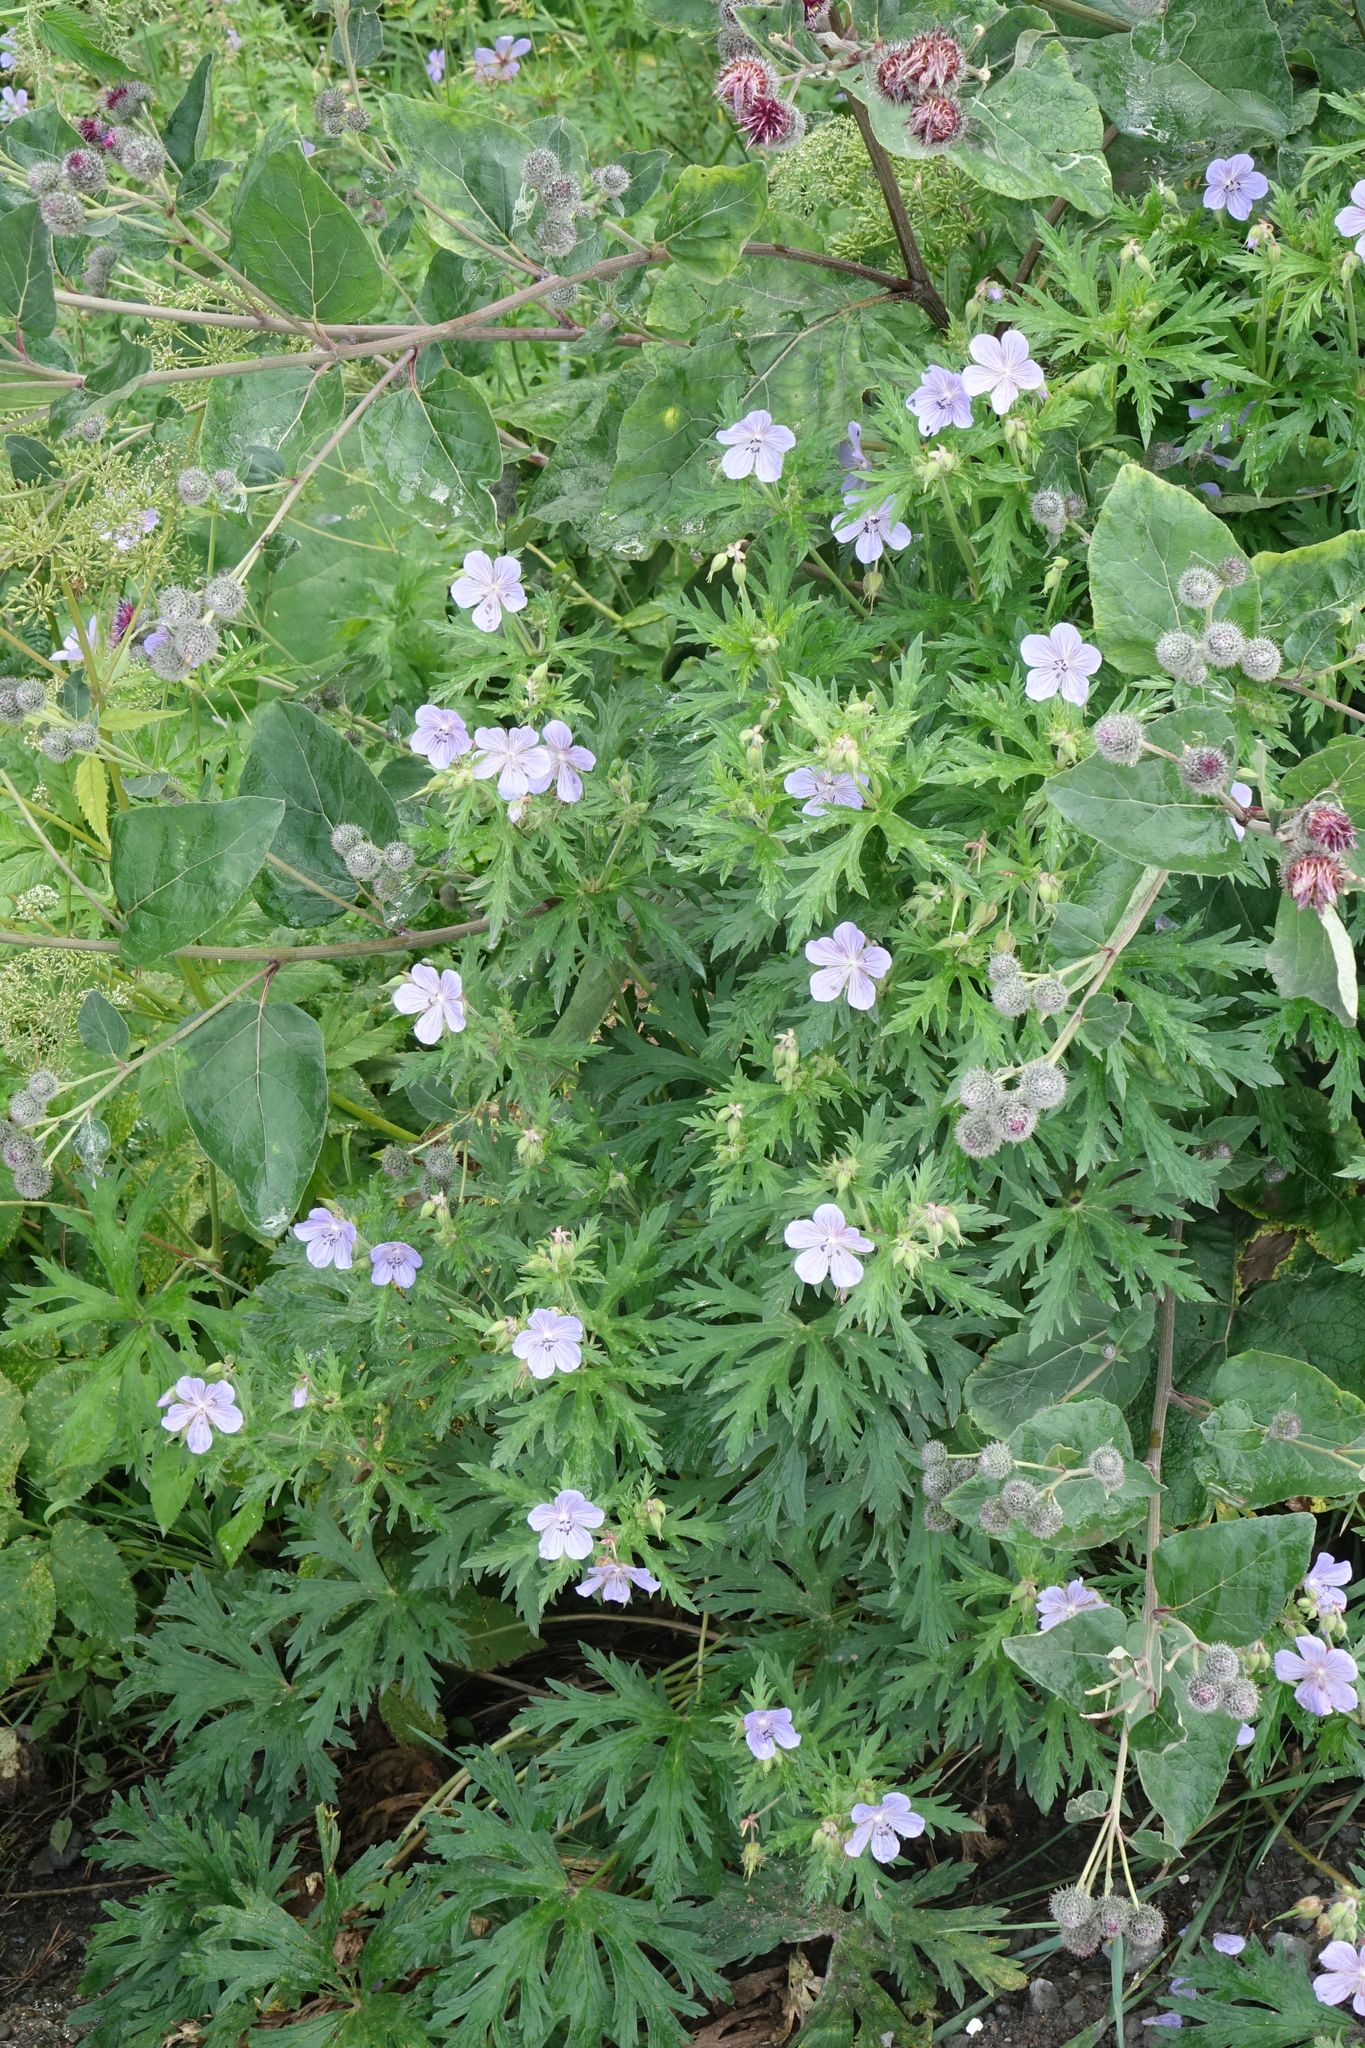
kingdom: Plantae
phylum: Tracheophyta
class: Magnoliopsida
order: Geraniales
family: Geraniaceae
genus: Geranium
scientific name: Geranium pratense
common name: Meadow crane's-bill
